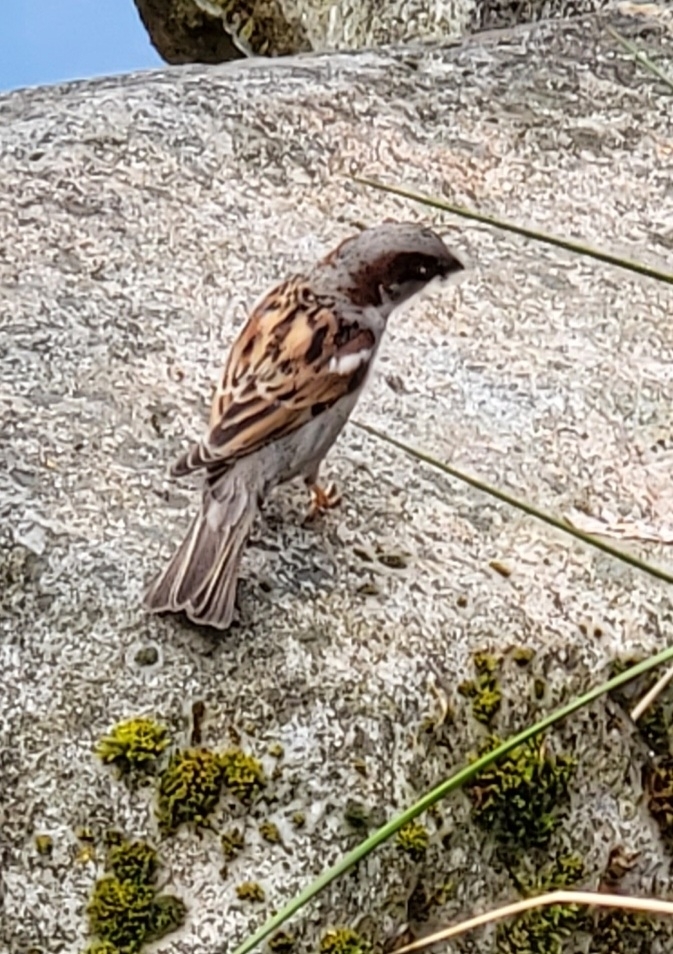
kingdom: Animalia
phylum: Chordata
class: Aves
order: Passeriformes
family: Passeridae
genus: Passer
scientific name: Passer domesticus
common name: House sparrow
